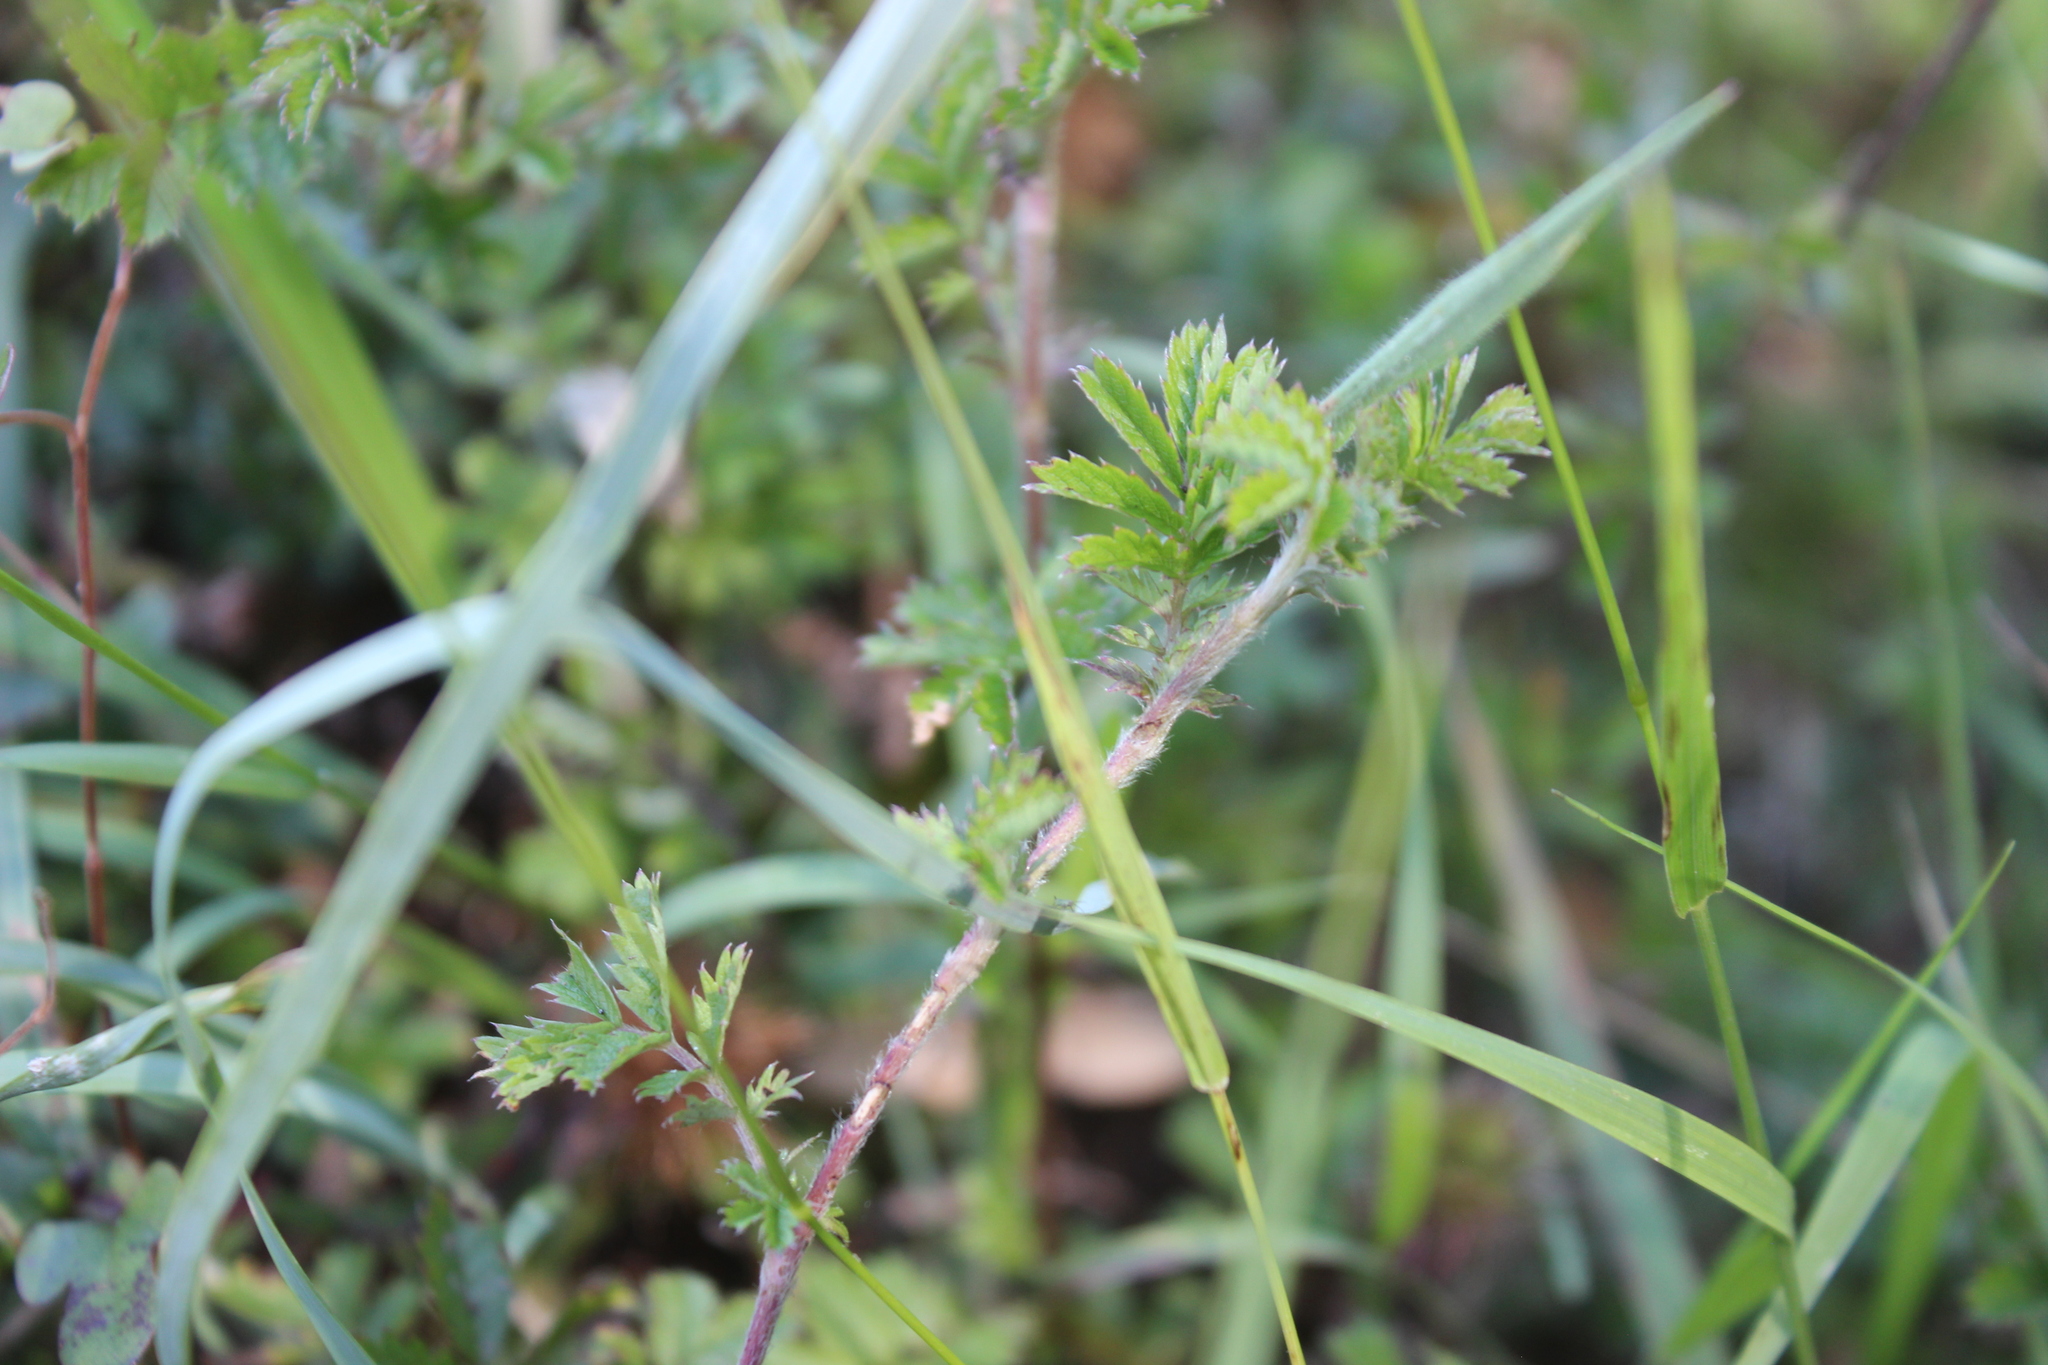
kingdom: Plantae
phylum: Tracheophyta
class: Magnoliopsida
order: Rosales
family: Rosaceae
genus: Acaena
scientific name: Acaena anserinifolia
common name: Bronze pirri-pirri-bur
